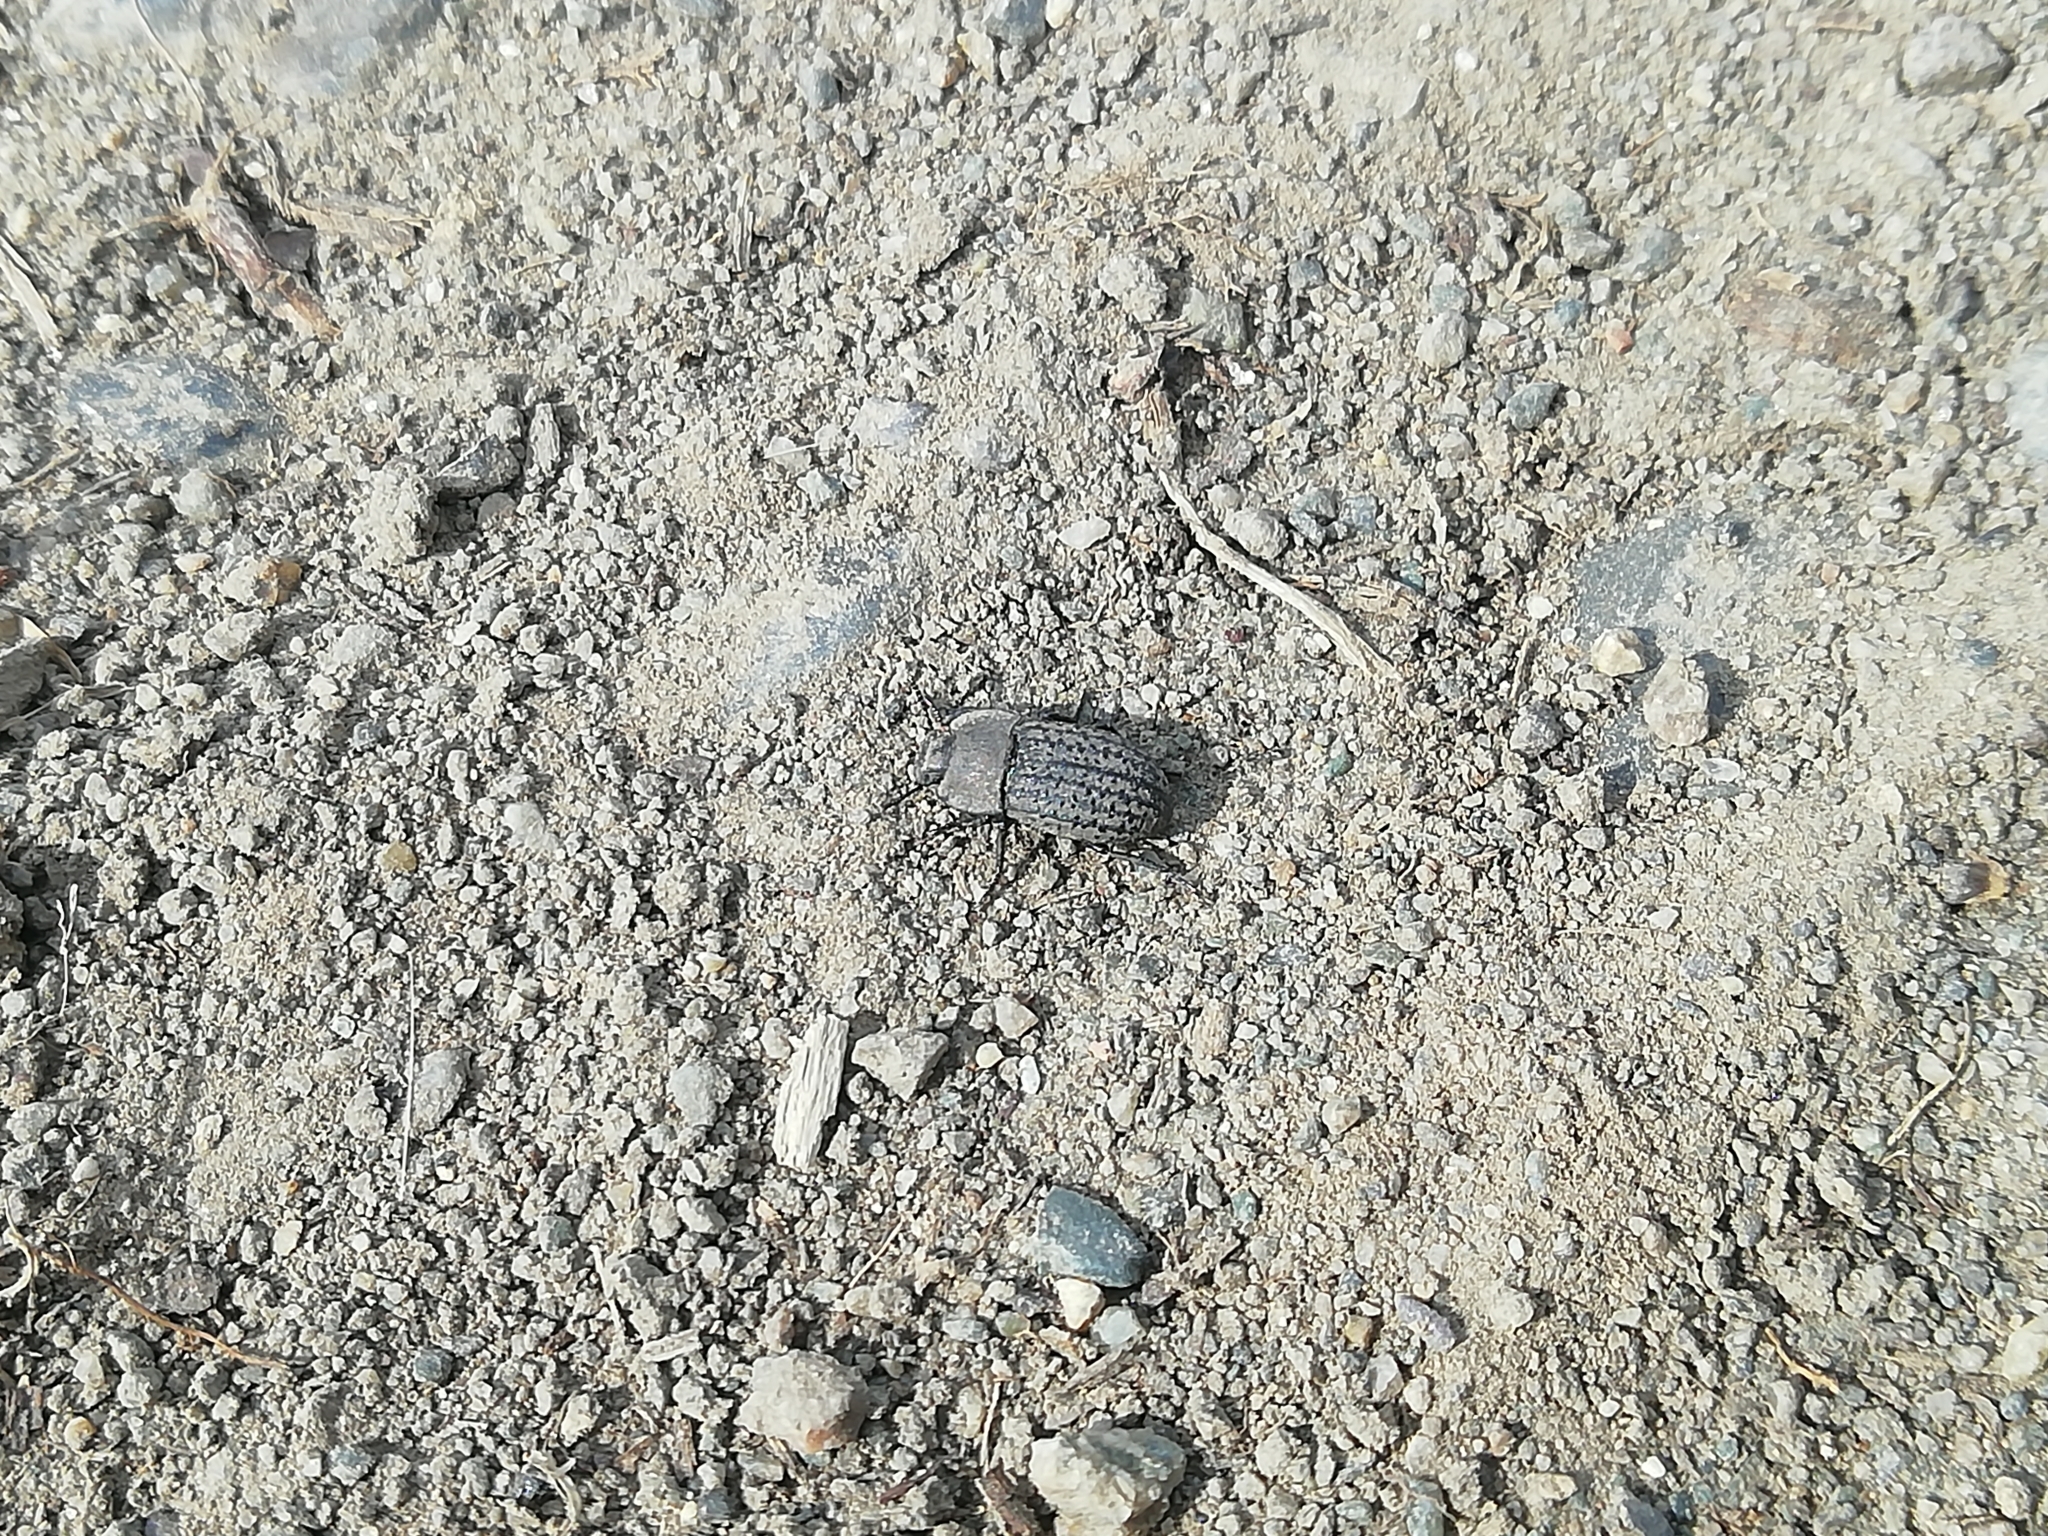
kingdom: Animalia
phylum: Arthropoda
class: Insecta
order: Coleoptera
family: Tenebrionidae
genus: Opatrum
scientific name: Opatrum sabulosum
